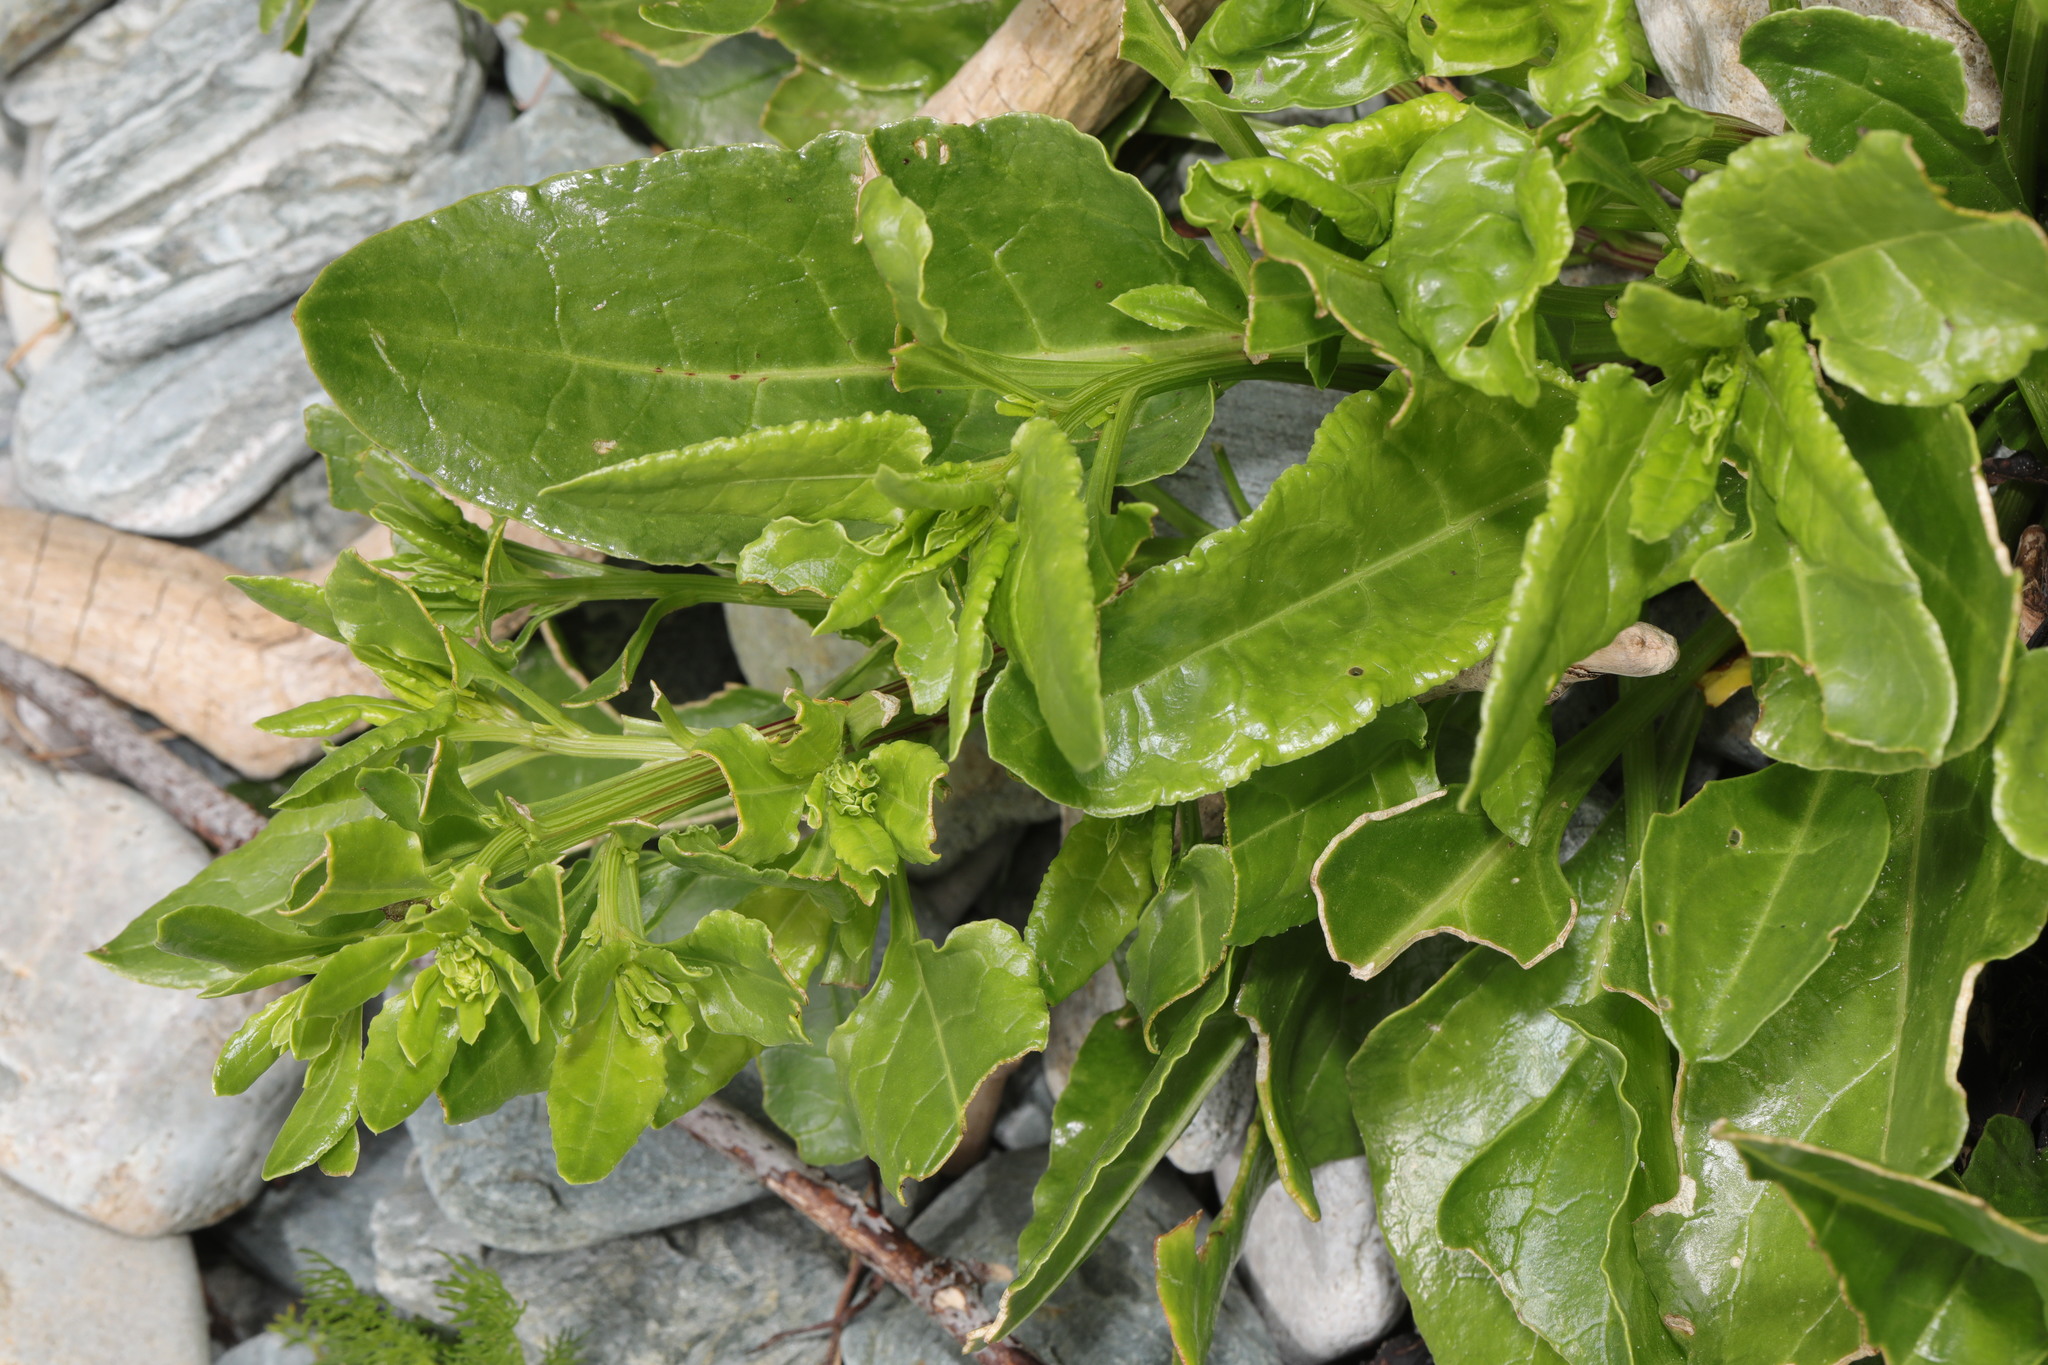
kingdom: Plantae
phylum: Tracheophyta
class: Magnoliopsida
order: Caryophyllales
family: Amaranthaceae
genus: Beta
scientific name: Beta vulgaris
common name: Beet
